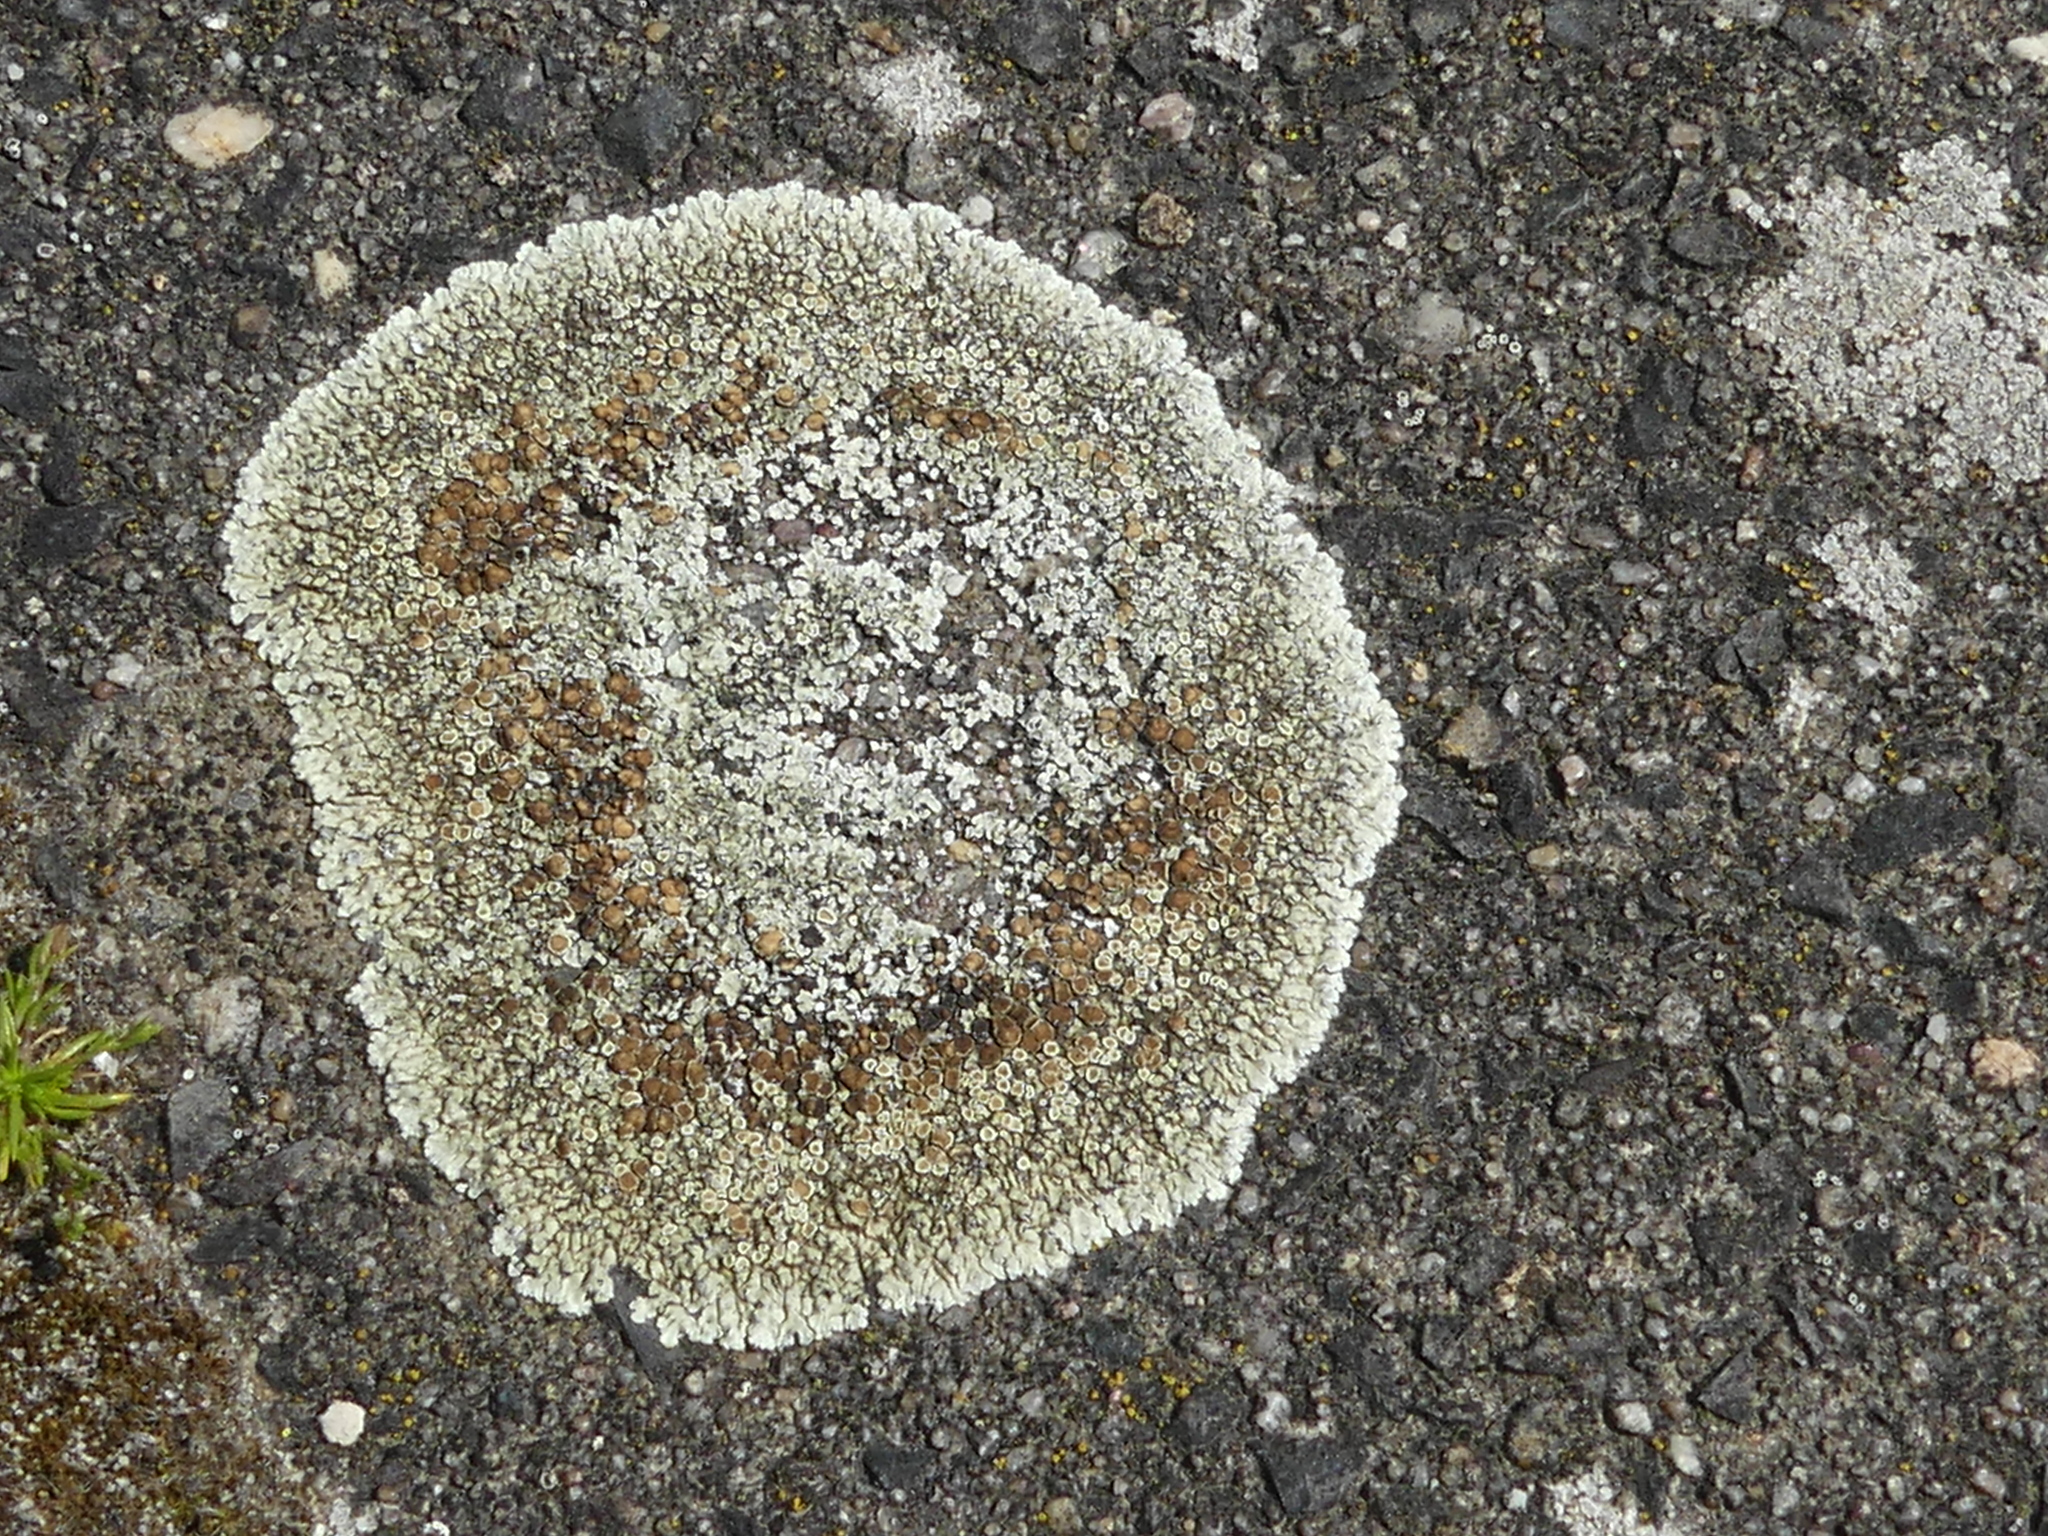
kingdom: Fungi
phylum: Ascomycota
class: Lecanoromycetes
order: Lecanorales
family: Lecanoraceae
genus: Protoparmeliopsis
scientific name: Protoparmeliopsis muralis
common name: Stonewall rim lichen
